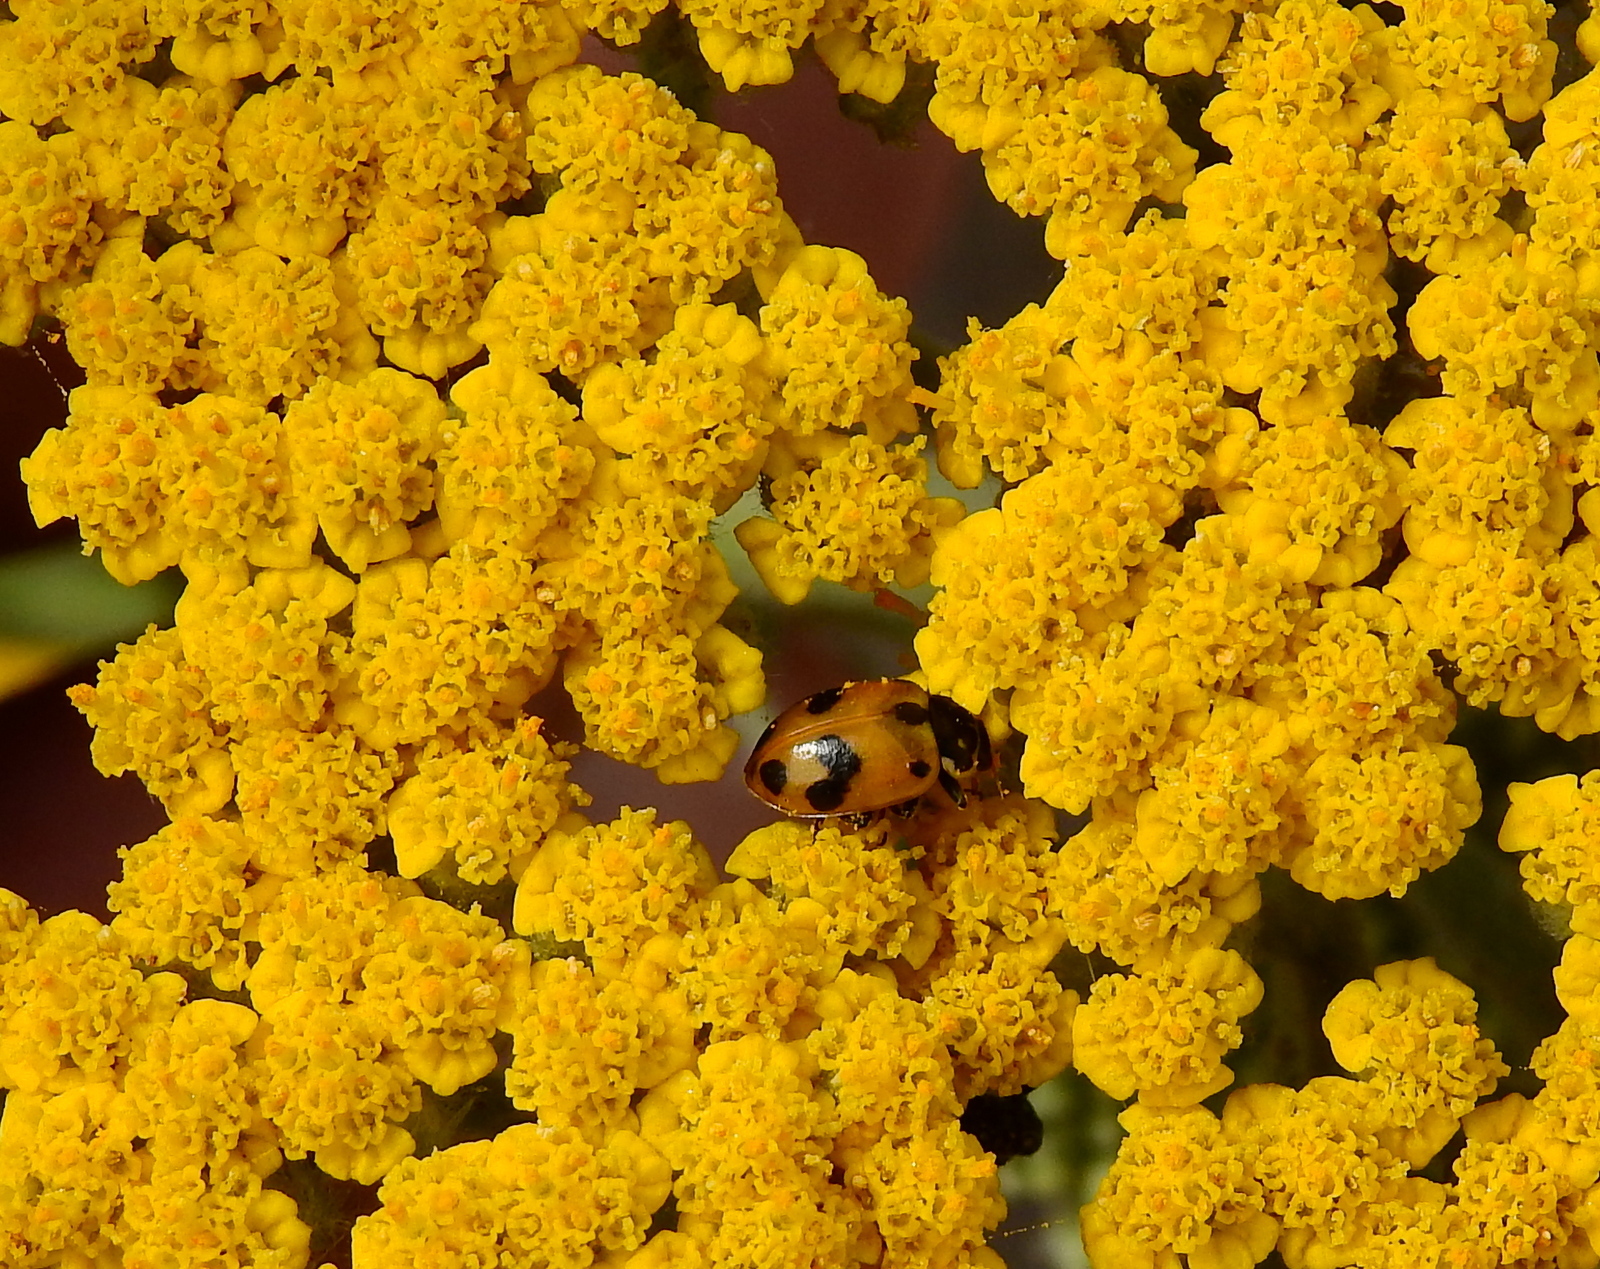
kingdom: Animalia
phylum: Arthropoda
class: Insecta
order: Coleoptera
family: Coccinellidae
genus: Hippodamia
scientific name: Hippodamia variegata
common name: Ladybird beetle
